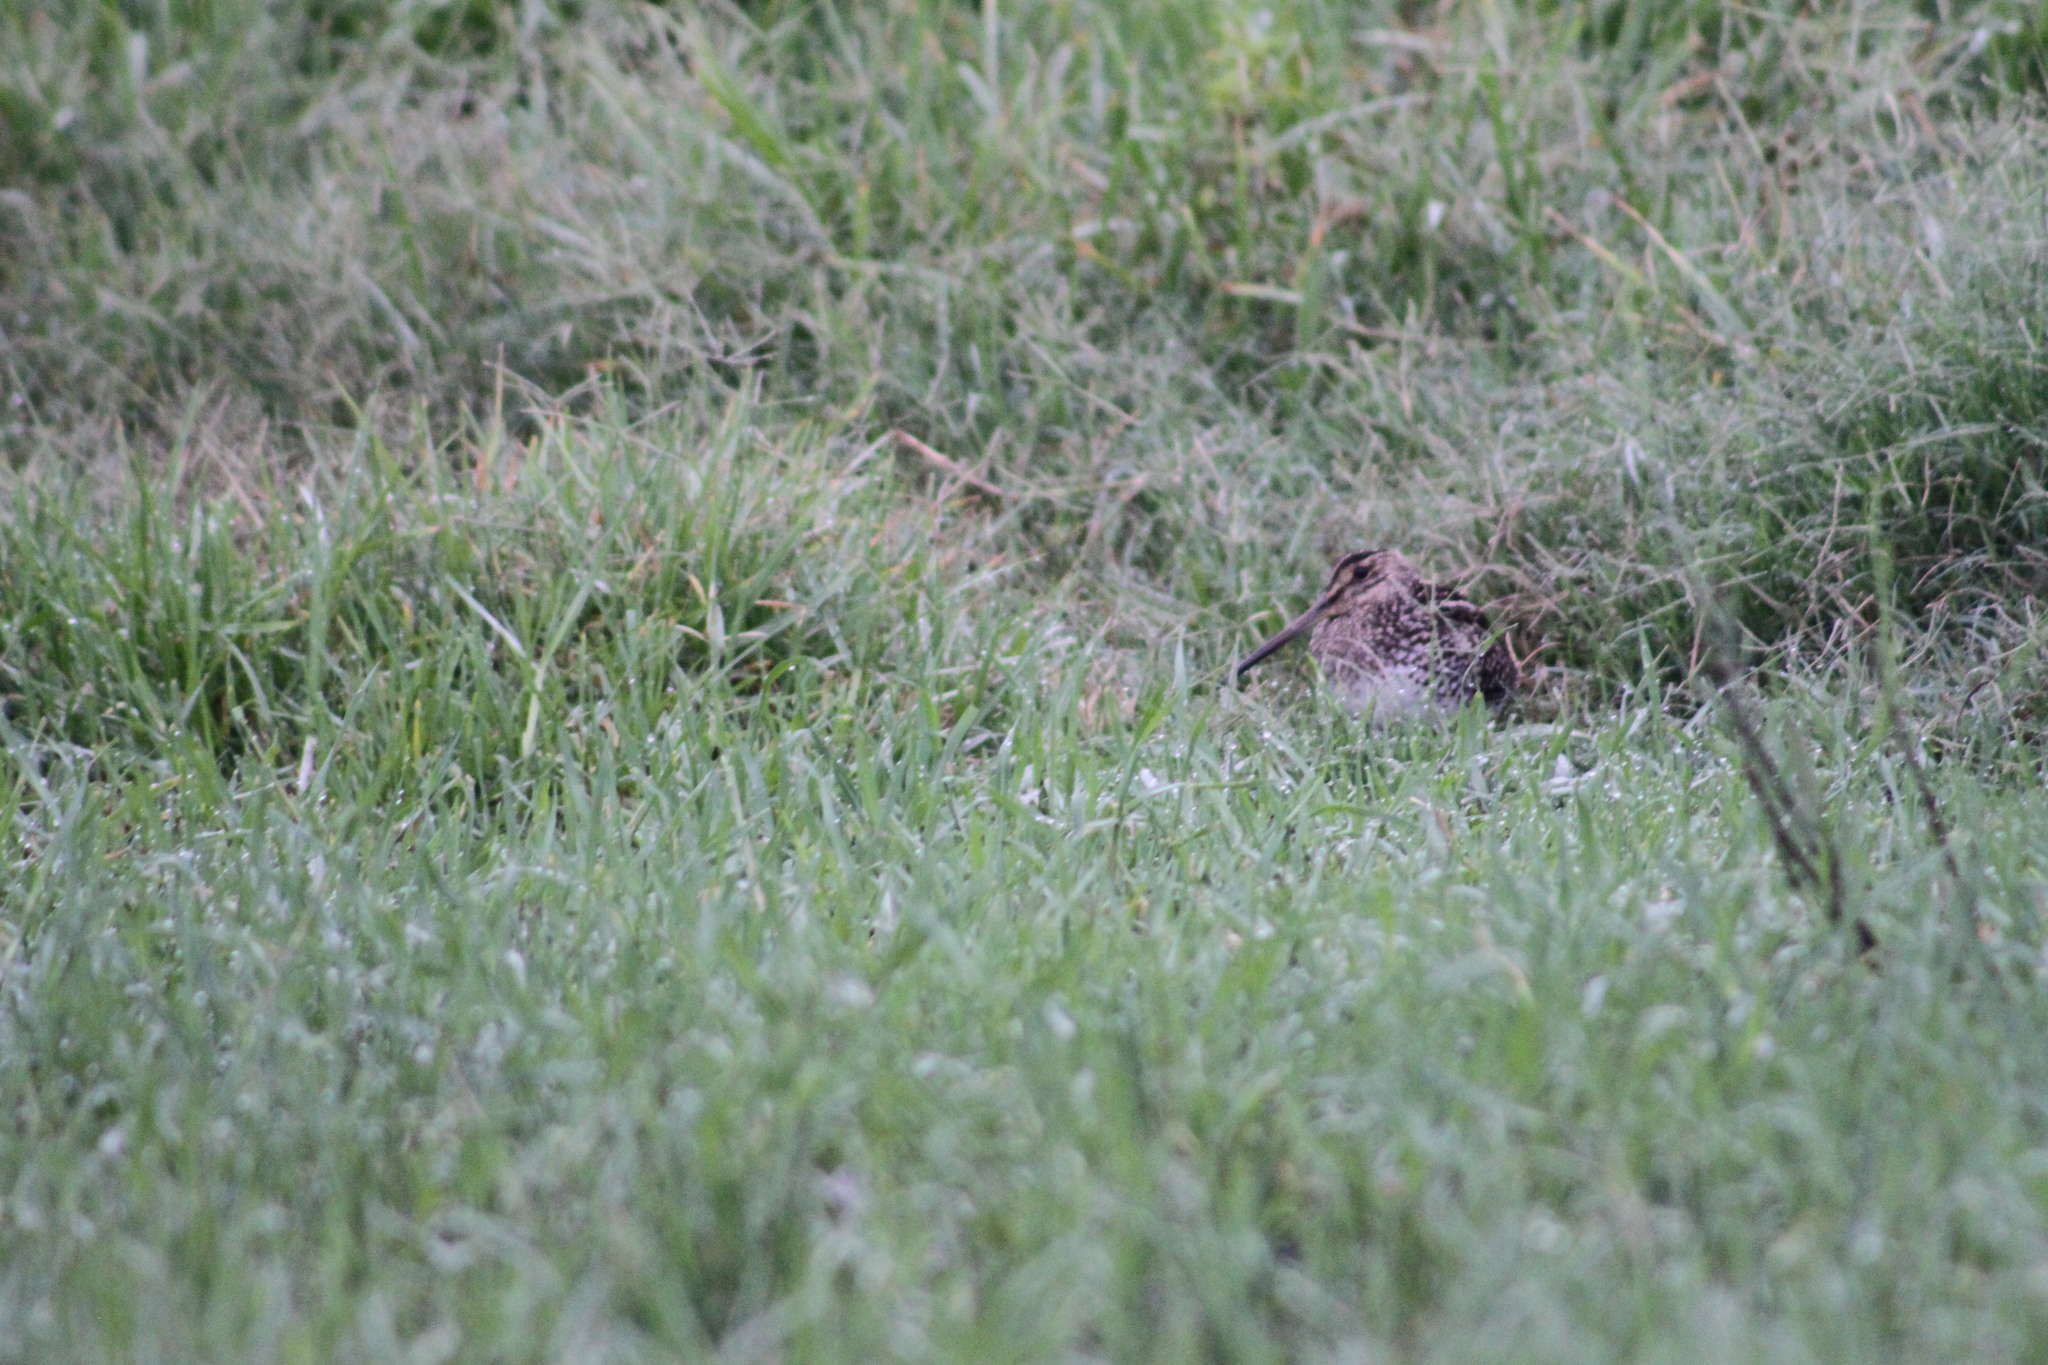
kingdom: Animalia
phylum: Chordata
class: Aves
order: Charadriiformes
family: Scolopacidae
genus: Gallinago
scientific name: Gallinago paraguaiae
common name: South american snipe
